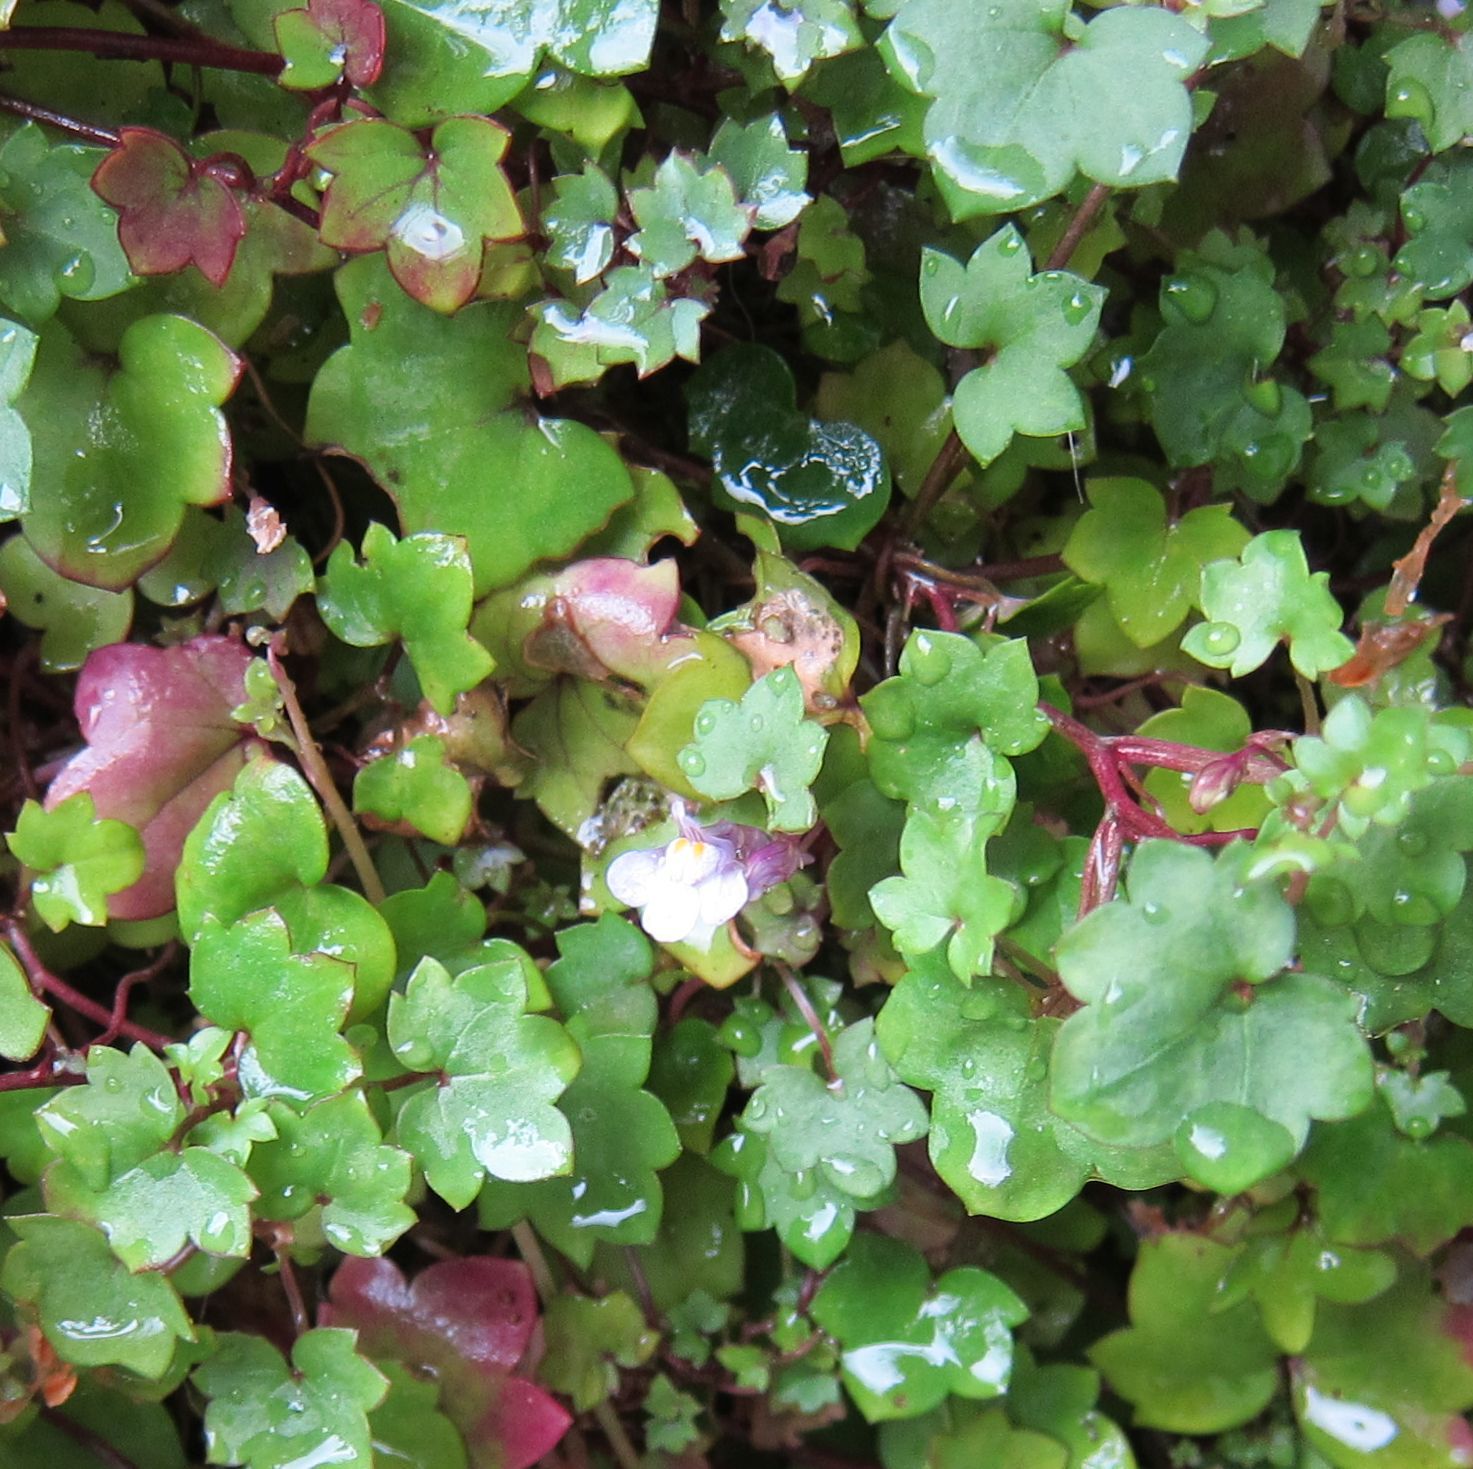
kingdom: Plantae
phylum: Tracheophyta
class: Magnoliopsida
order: Lamiales
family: Plantaginaceae
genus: Cymbalaria
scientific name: Cymbalaria muralis
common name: Ivy-leaved toadflax
